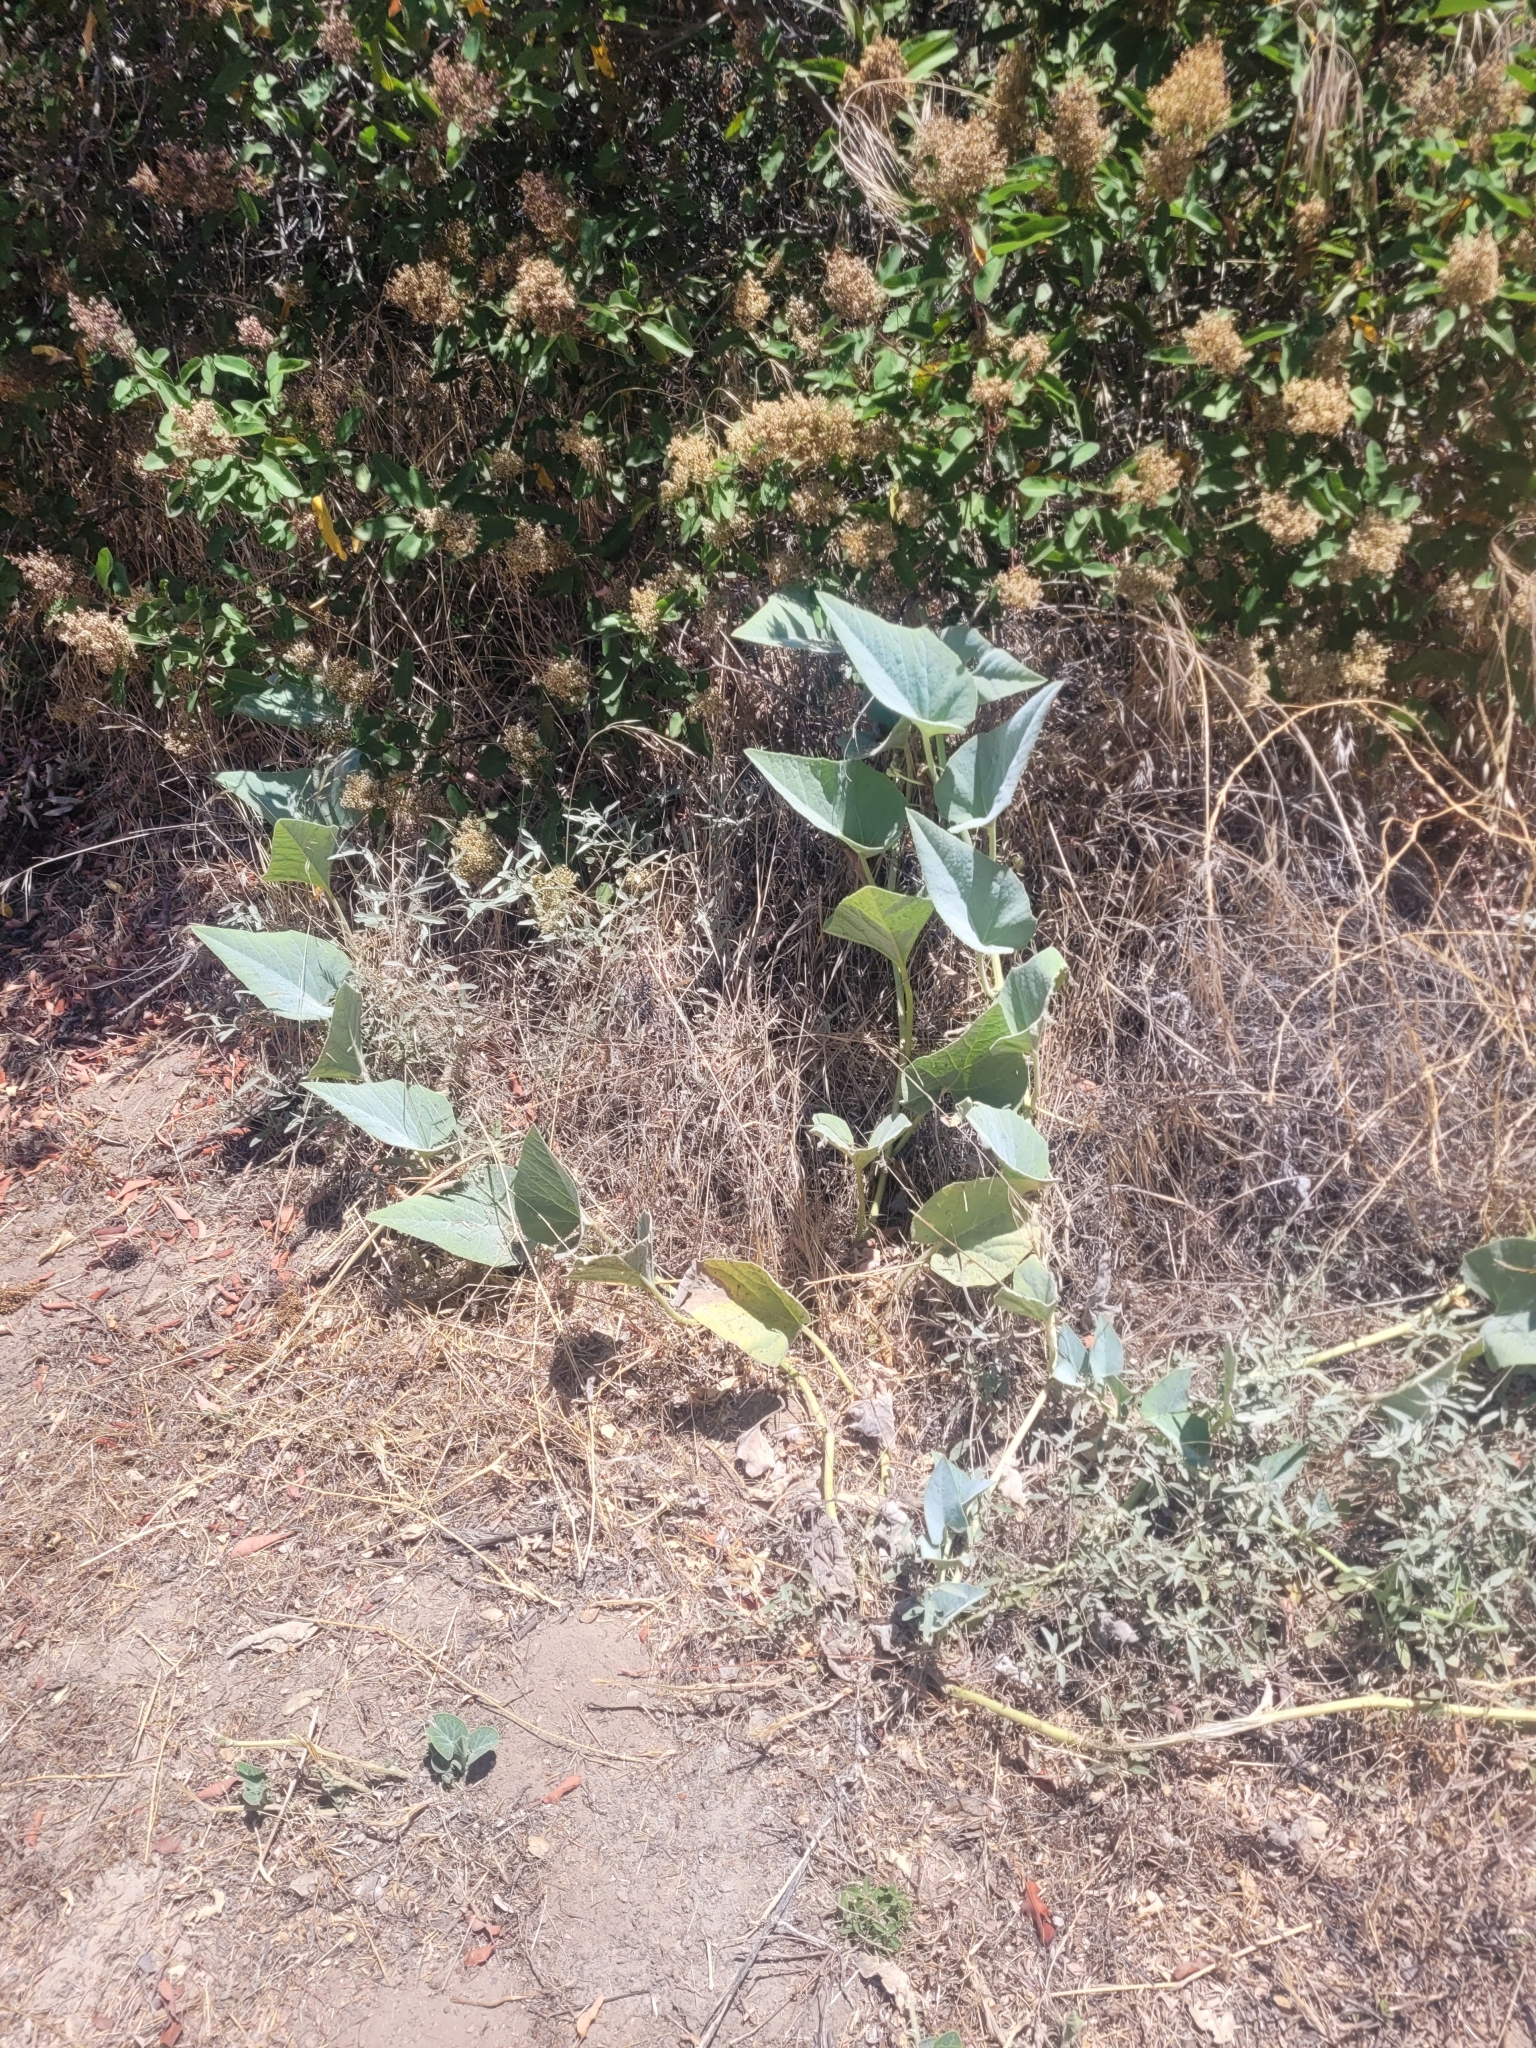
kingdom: Plantae
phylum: Tracheophyta
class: Magnoliopsida
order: Cucurbitales
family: Cucurbitaceae
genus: Cucurbita
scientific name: Cucurbita foetidissima
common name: Buffalo gourd
